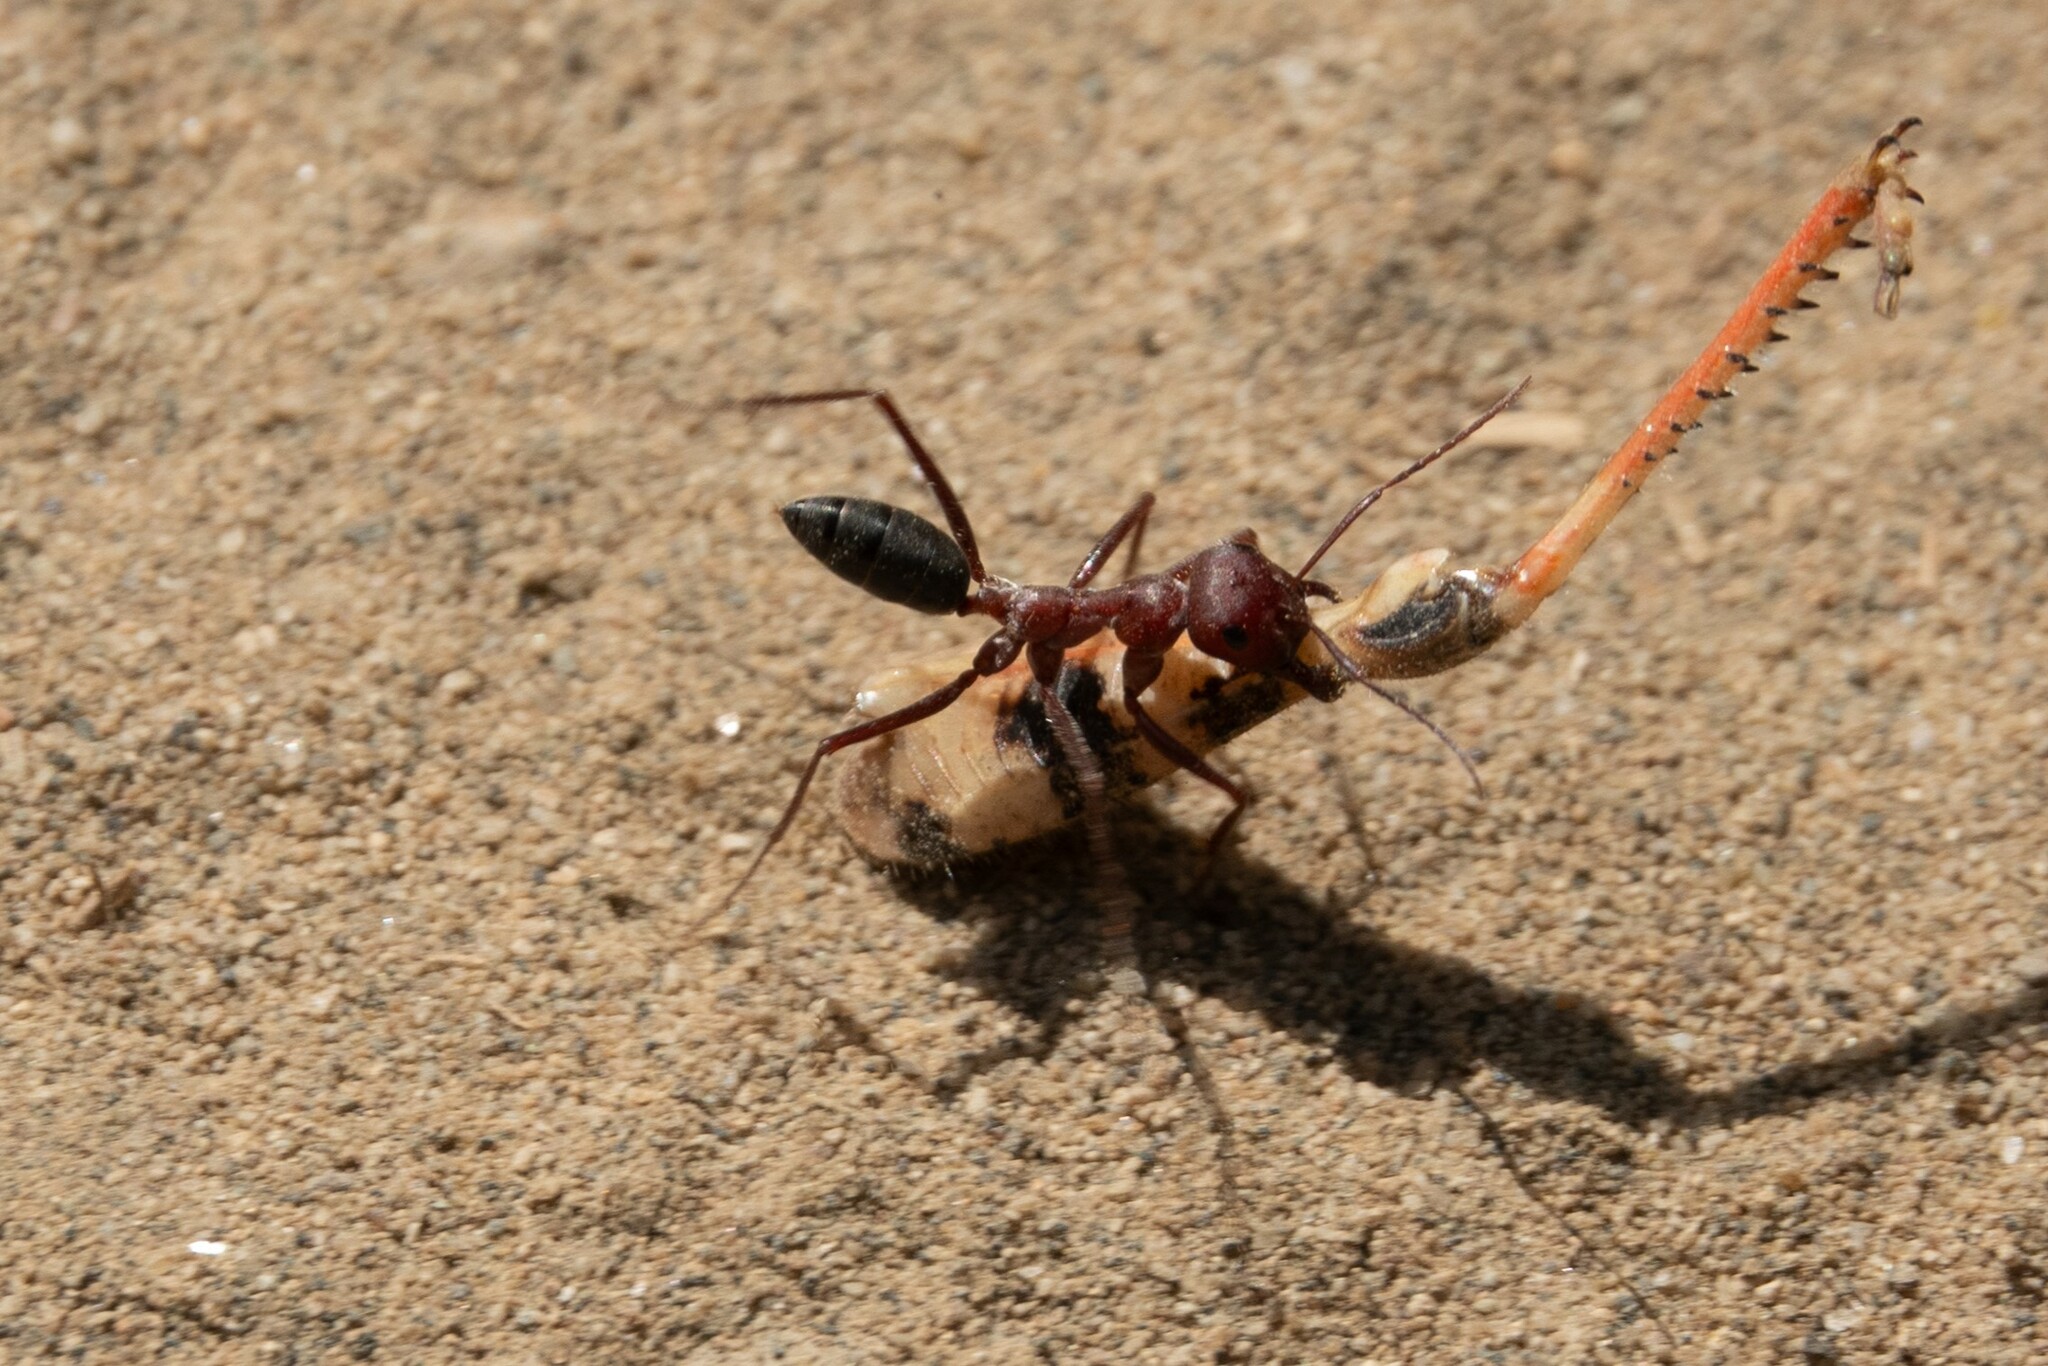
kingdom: Animalia
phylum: Arthropoda
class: Insecta
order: Hymenoptera
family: Formicidae
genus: Cataglyphis
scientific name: Cataglyphis nodus
